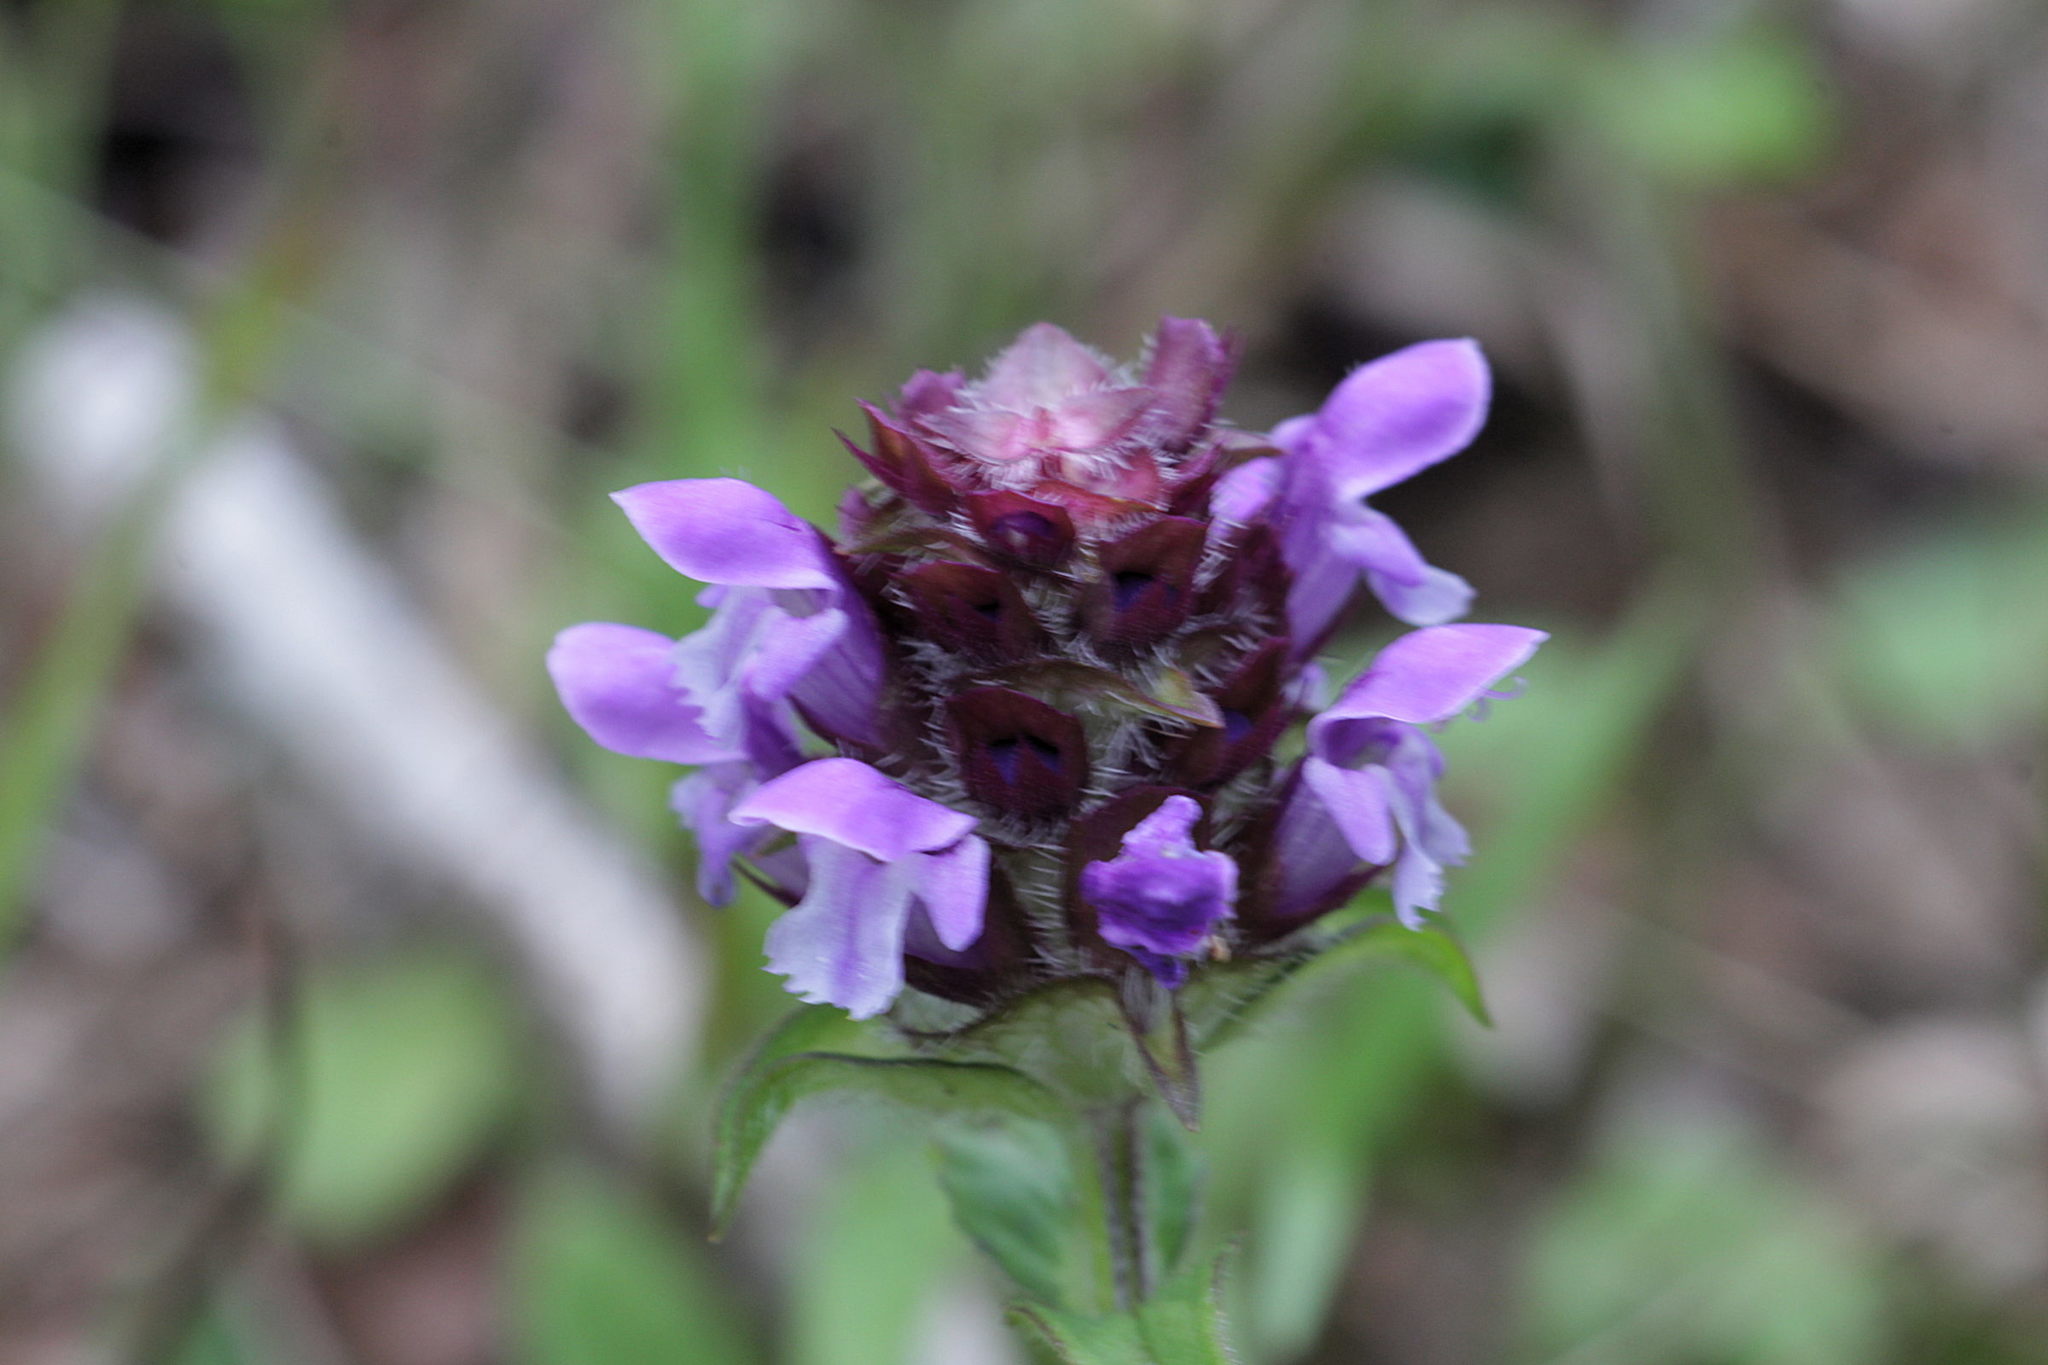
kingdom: Plantae
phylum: Tracheophyta
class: Magnoliopsida
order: Lamiales
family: Lamiaceae
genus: Prunella
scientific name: Prunella vulgaris
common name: Heal-all
